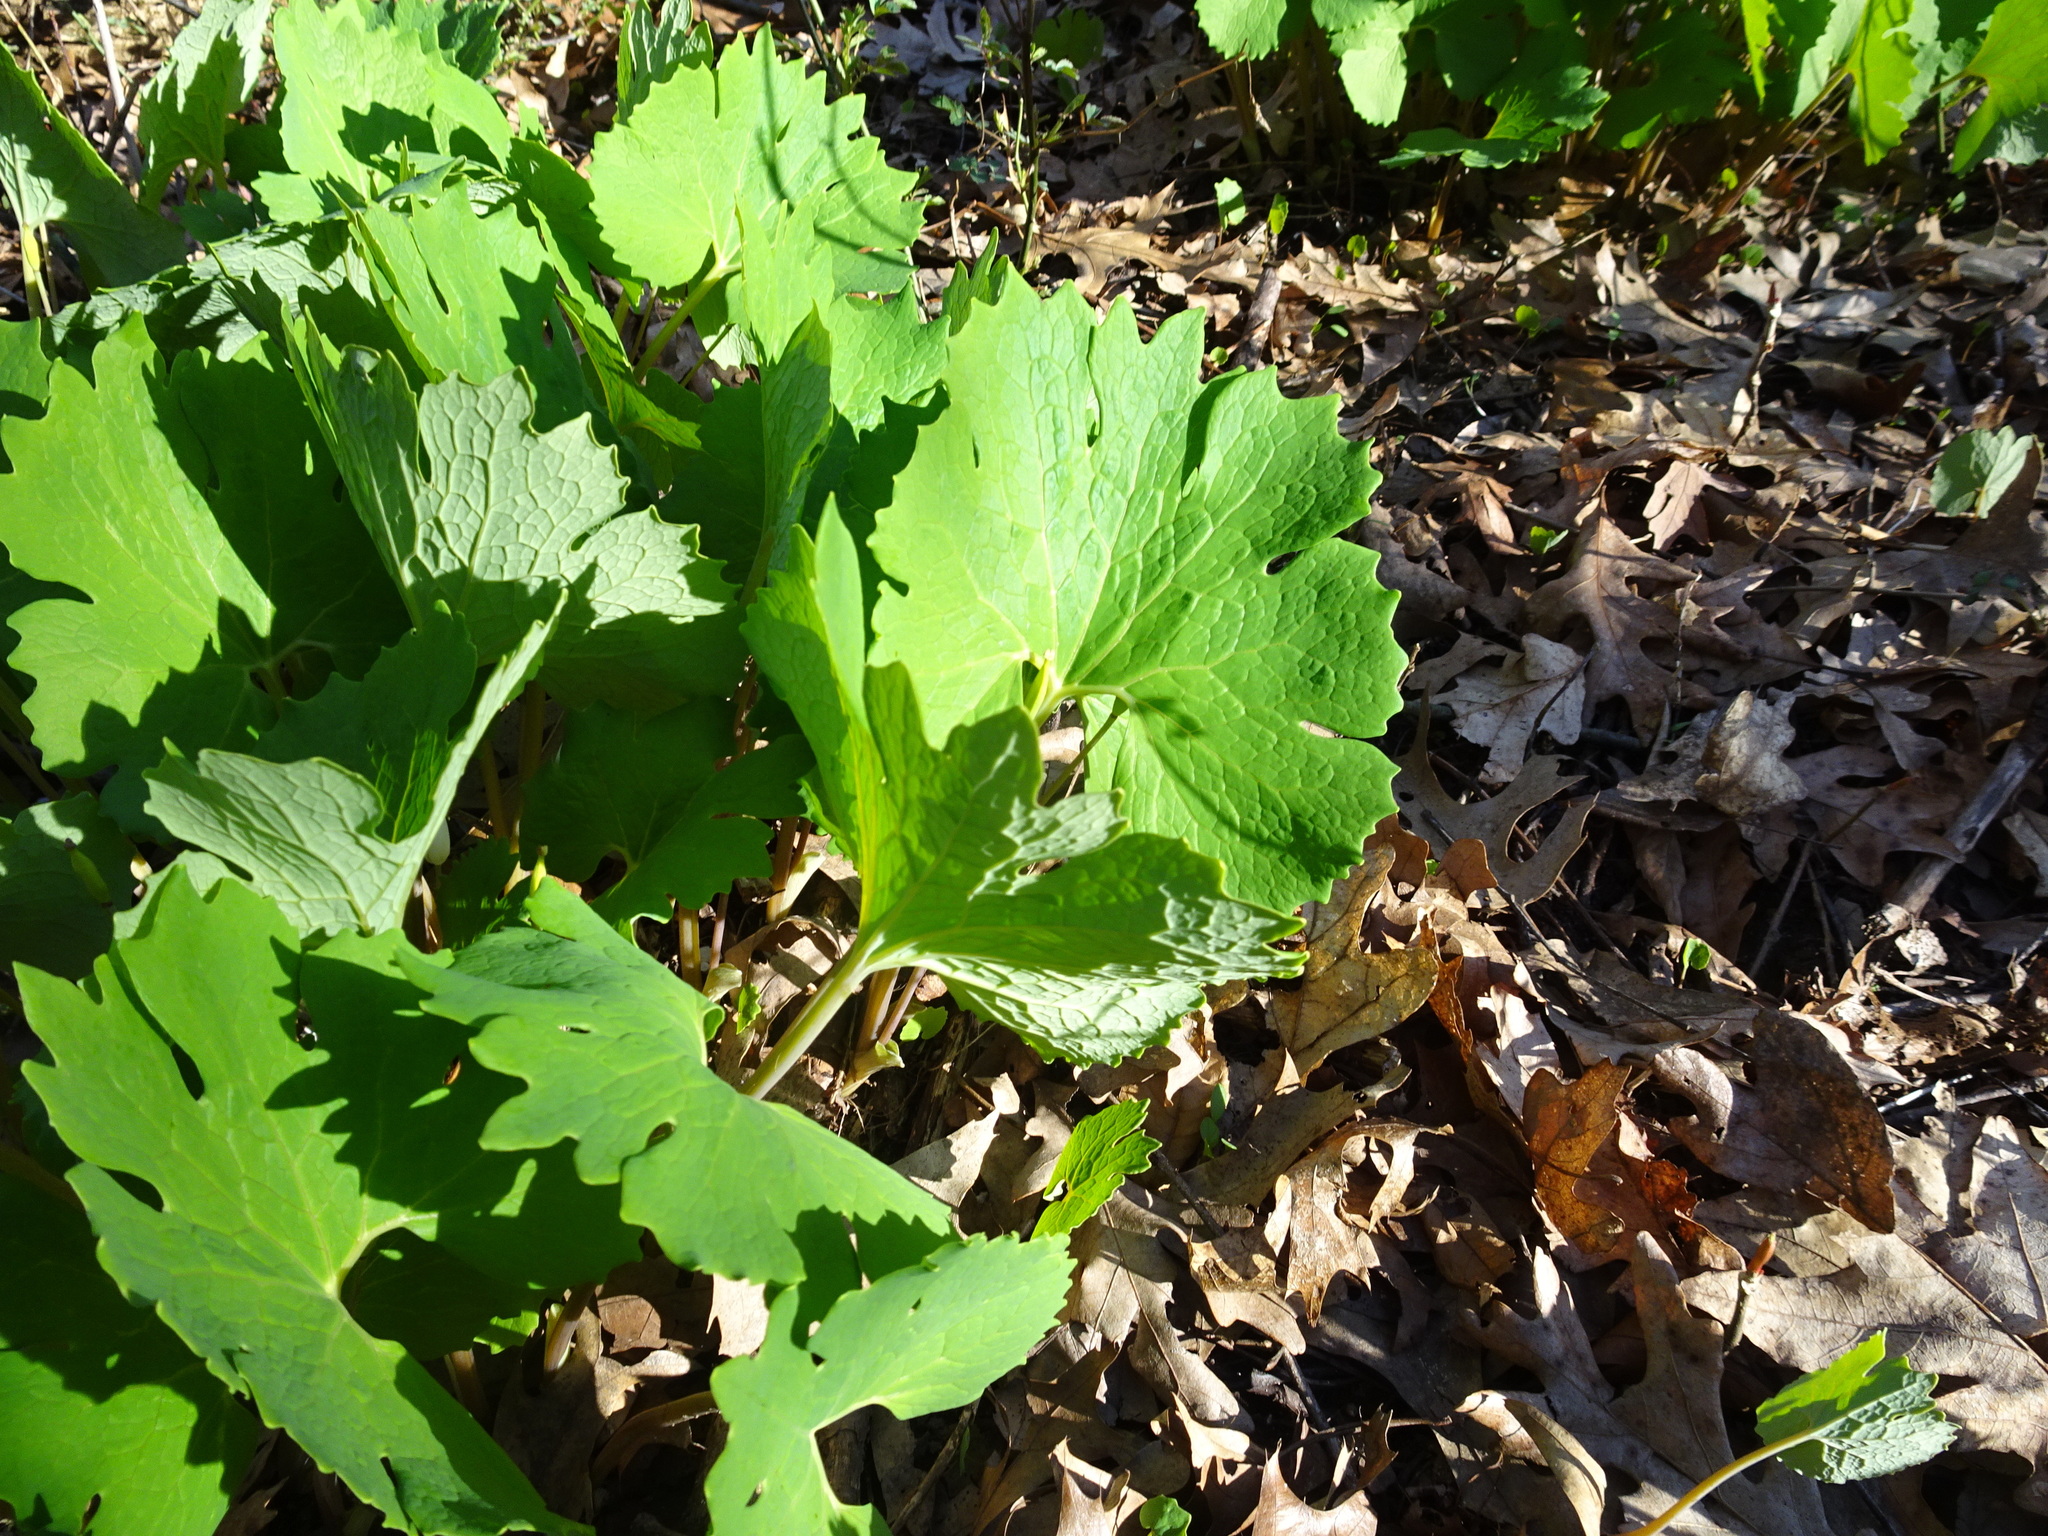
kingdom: Plantae
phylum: Tracheophyta
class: Magnoliopsida
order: Ranunculales
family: Papaveraceae
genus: Sanguinaria
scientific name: Sanguinaria canadensis
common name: Bloodroot
